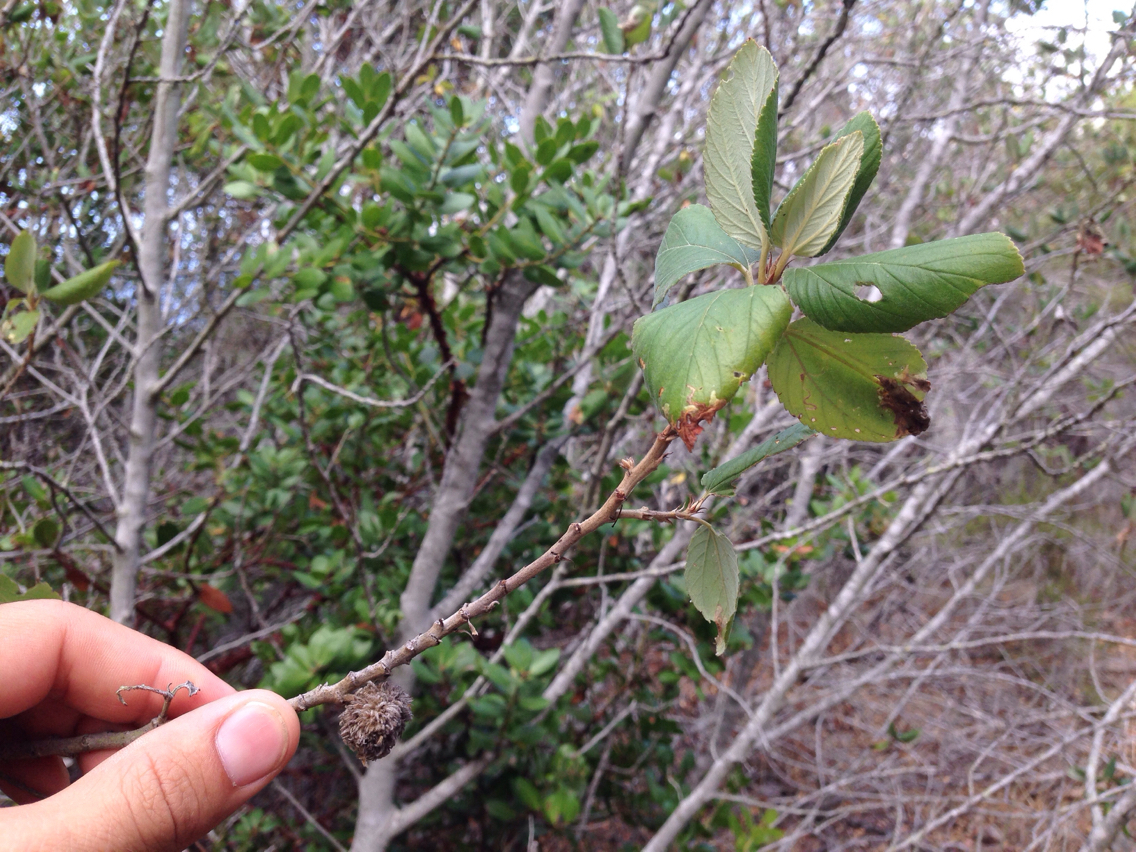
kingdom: Animalia
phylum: Arthropoda
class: Insecta
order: Diptera
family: Cecidomyiidae
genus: Asphondylia
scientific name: Asphondylia ceanothi
